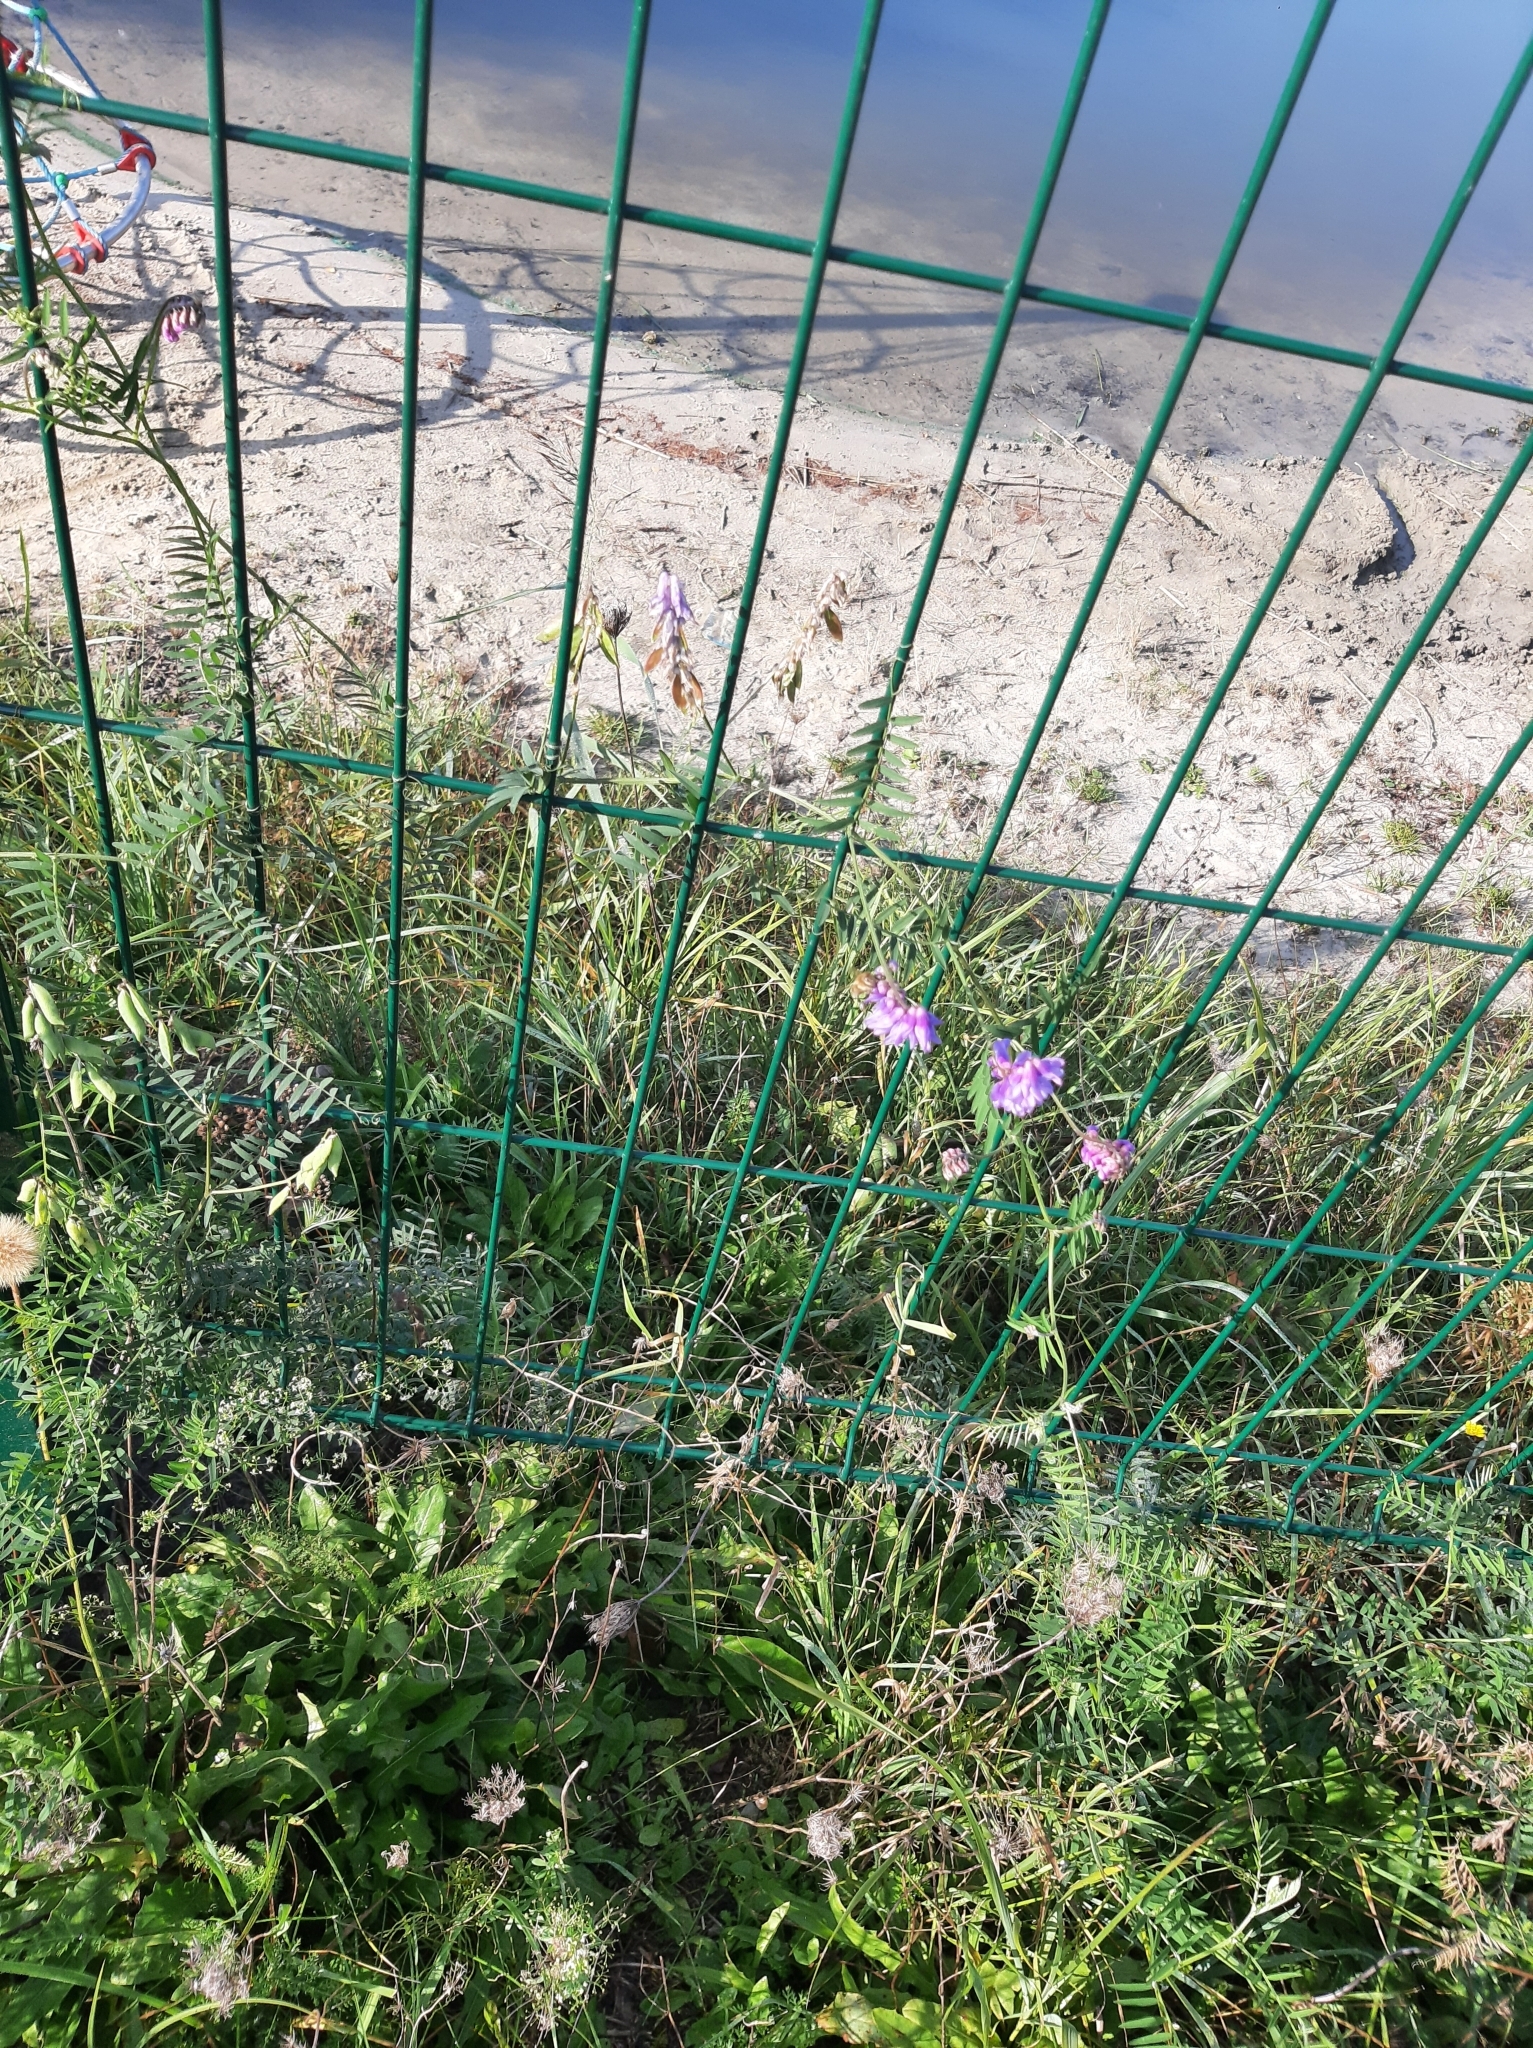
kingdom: Plantae
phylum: Tracheophyta
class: Magnoliopsida
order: Fabales
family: Fabaceae
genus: Vicia
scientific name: Vicia cracca
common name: Bird vetch
